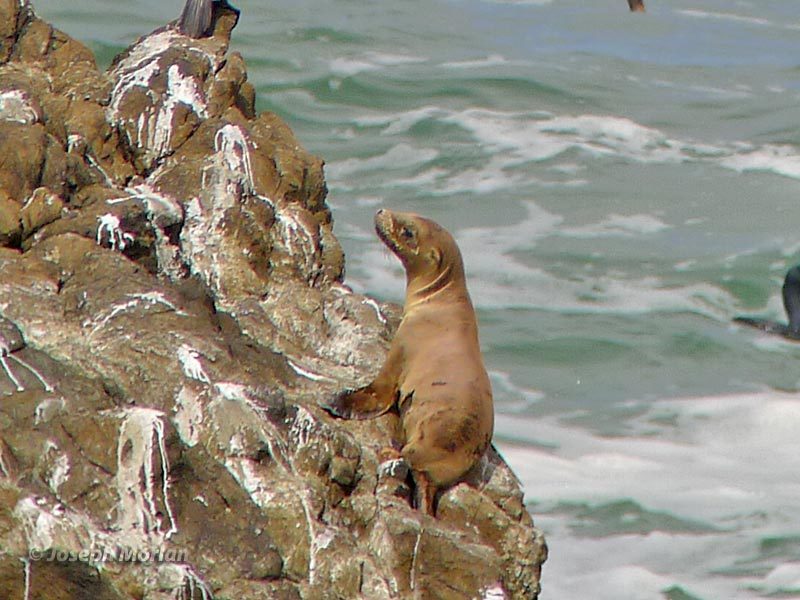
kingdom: Animalia
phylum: Chordata
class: Mammalia
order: Carnivora
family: Otariidae
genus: Zalophus
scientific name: Zalophus californianus
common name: California sea lion
